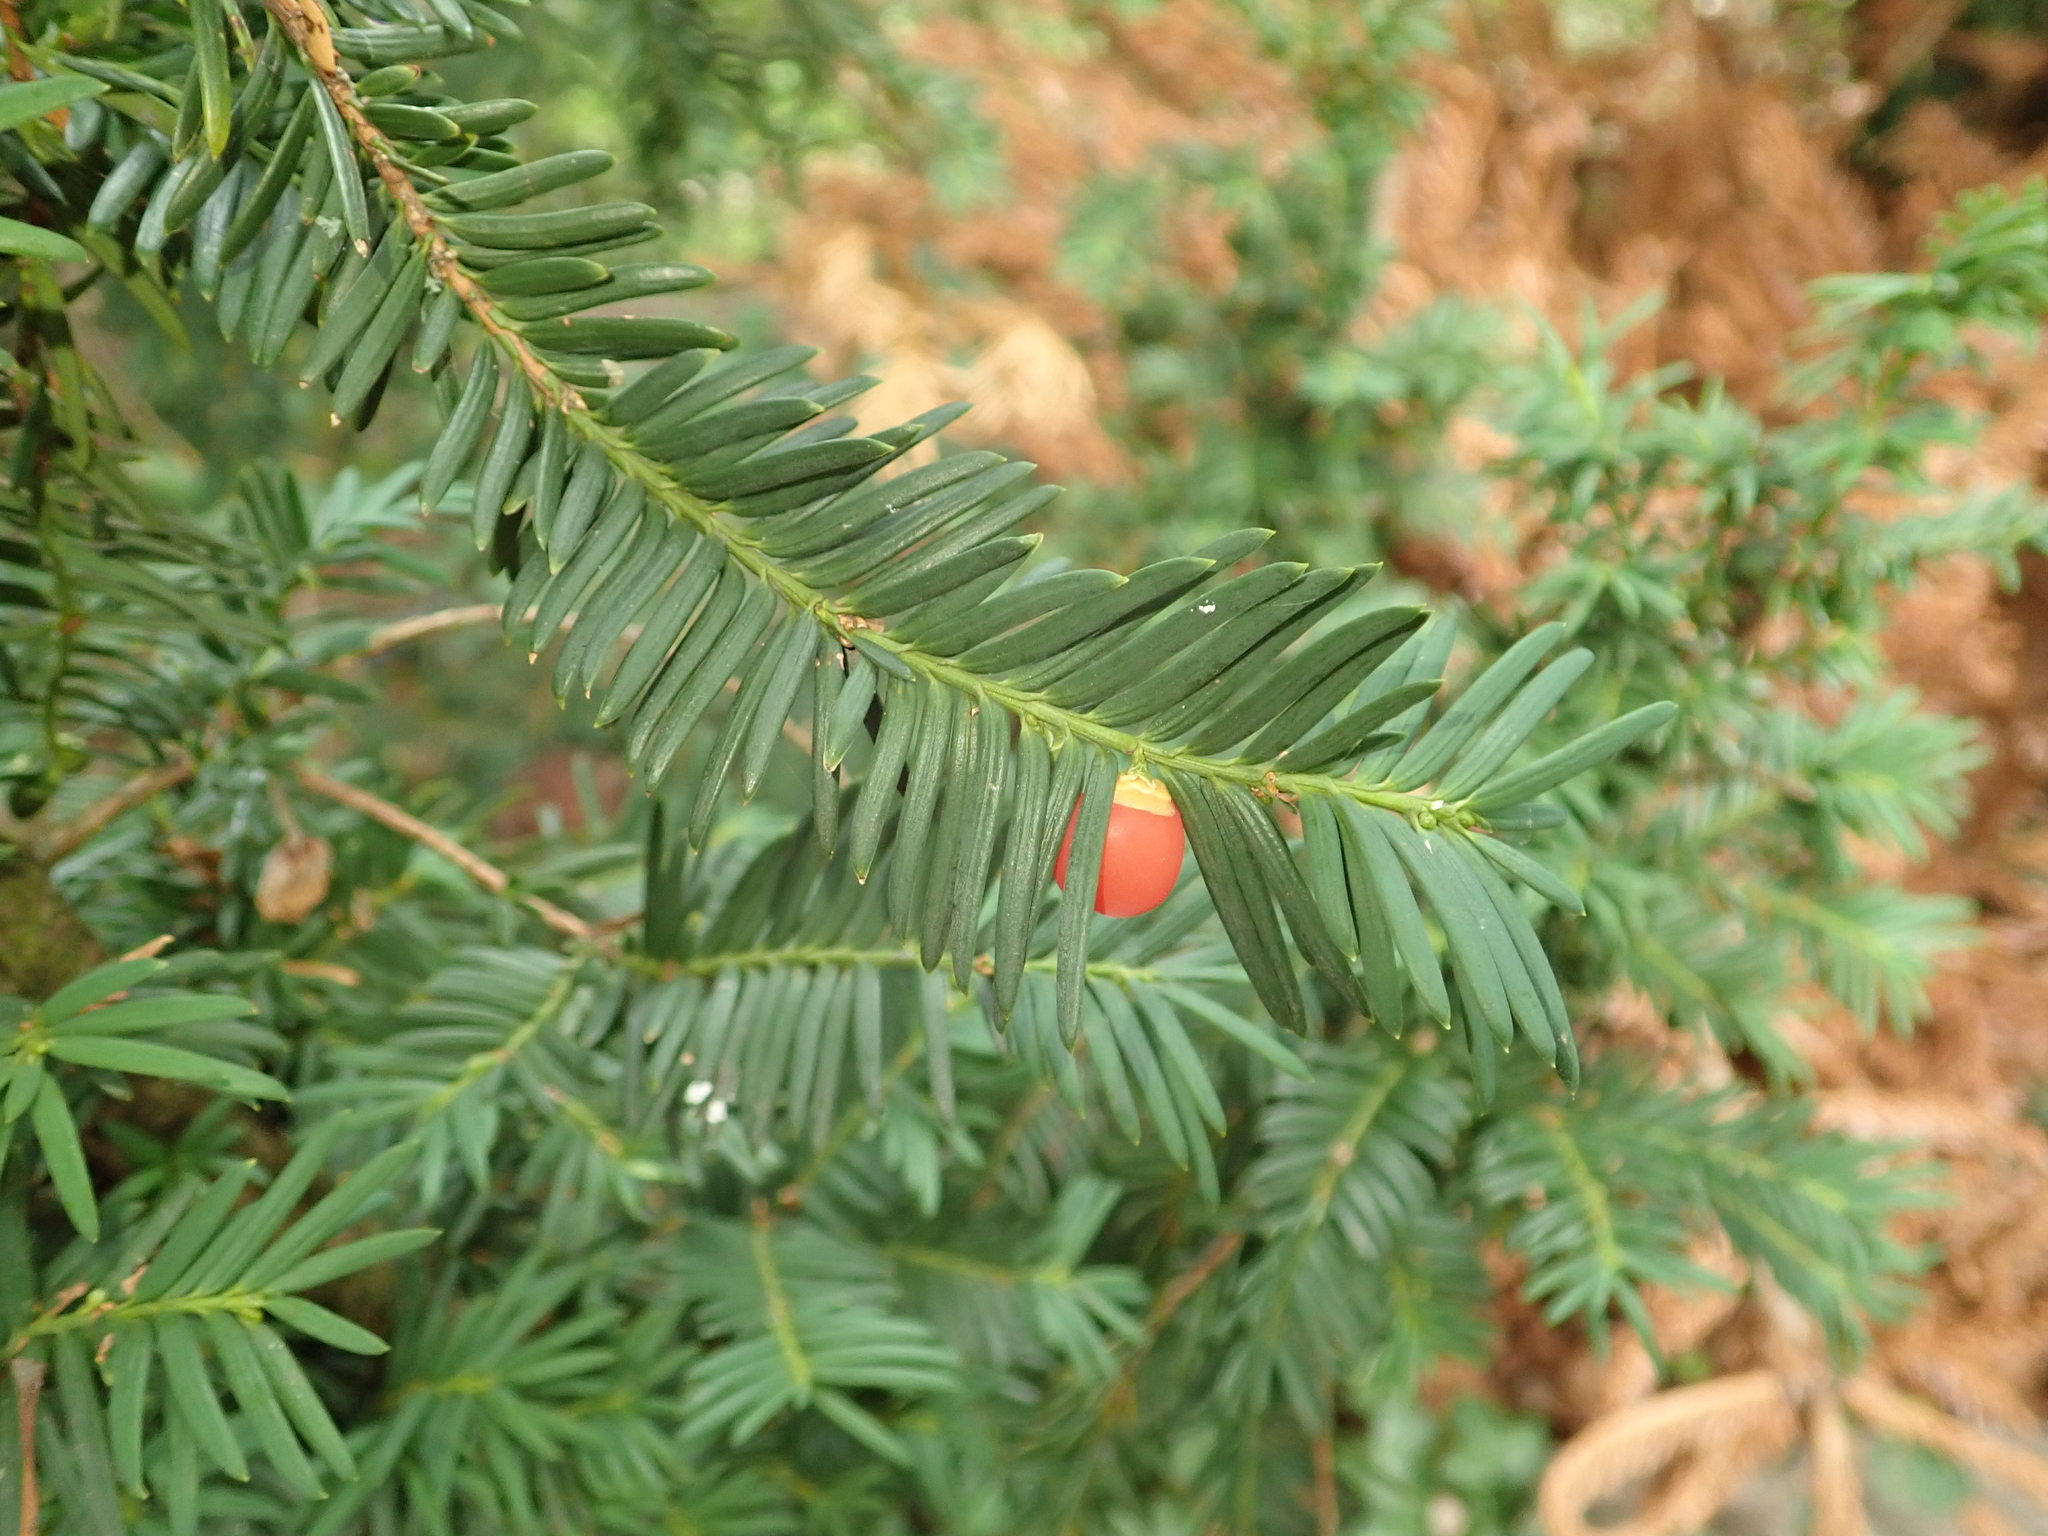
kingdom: Plantae
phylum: Tracheophyta
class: Pinopsida
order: Pinales
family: Taxaceae
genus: Taxus
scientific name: Taxus baccata
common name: Yew
